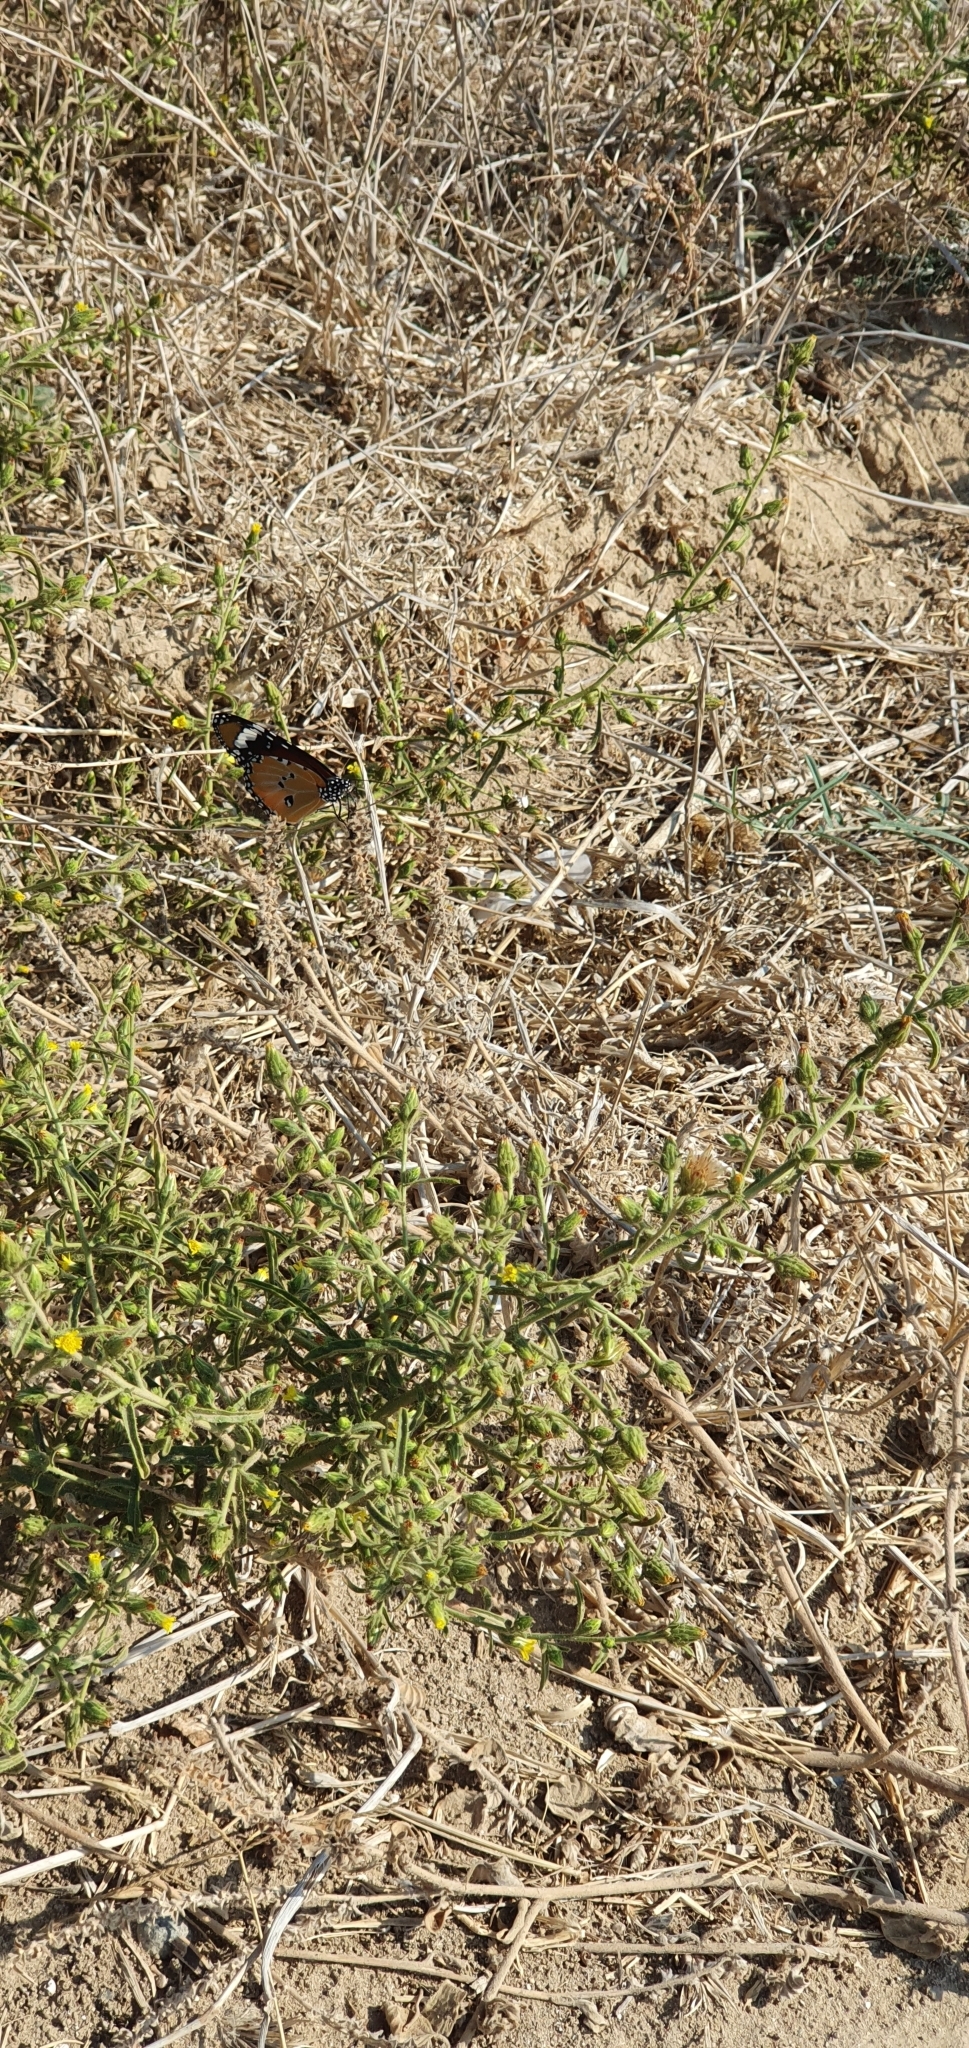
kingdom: Animalia
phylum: Arthropoda
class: Insecta
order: Lepidoptera
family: Nymphalidae
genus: Danaus
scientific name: Danaus chrysippus
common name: Plain tiger
